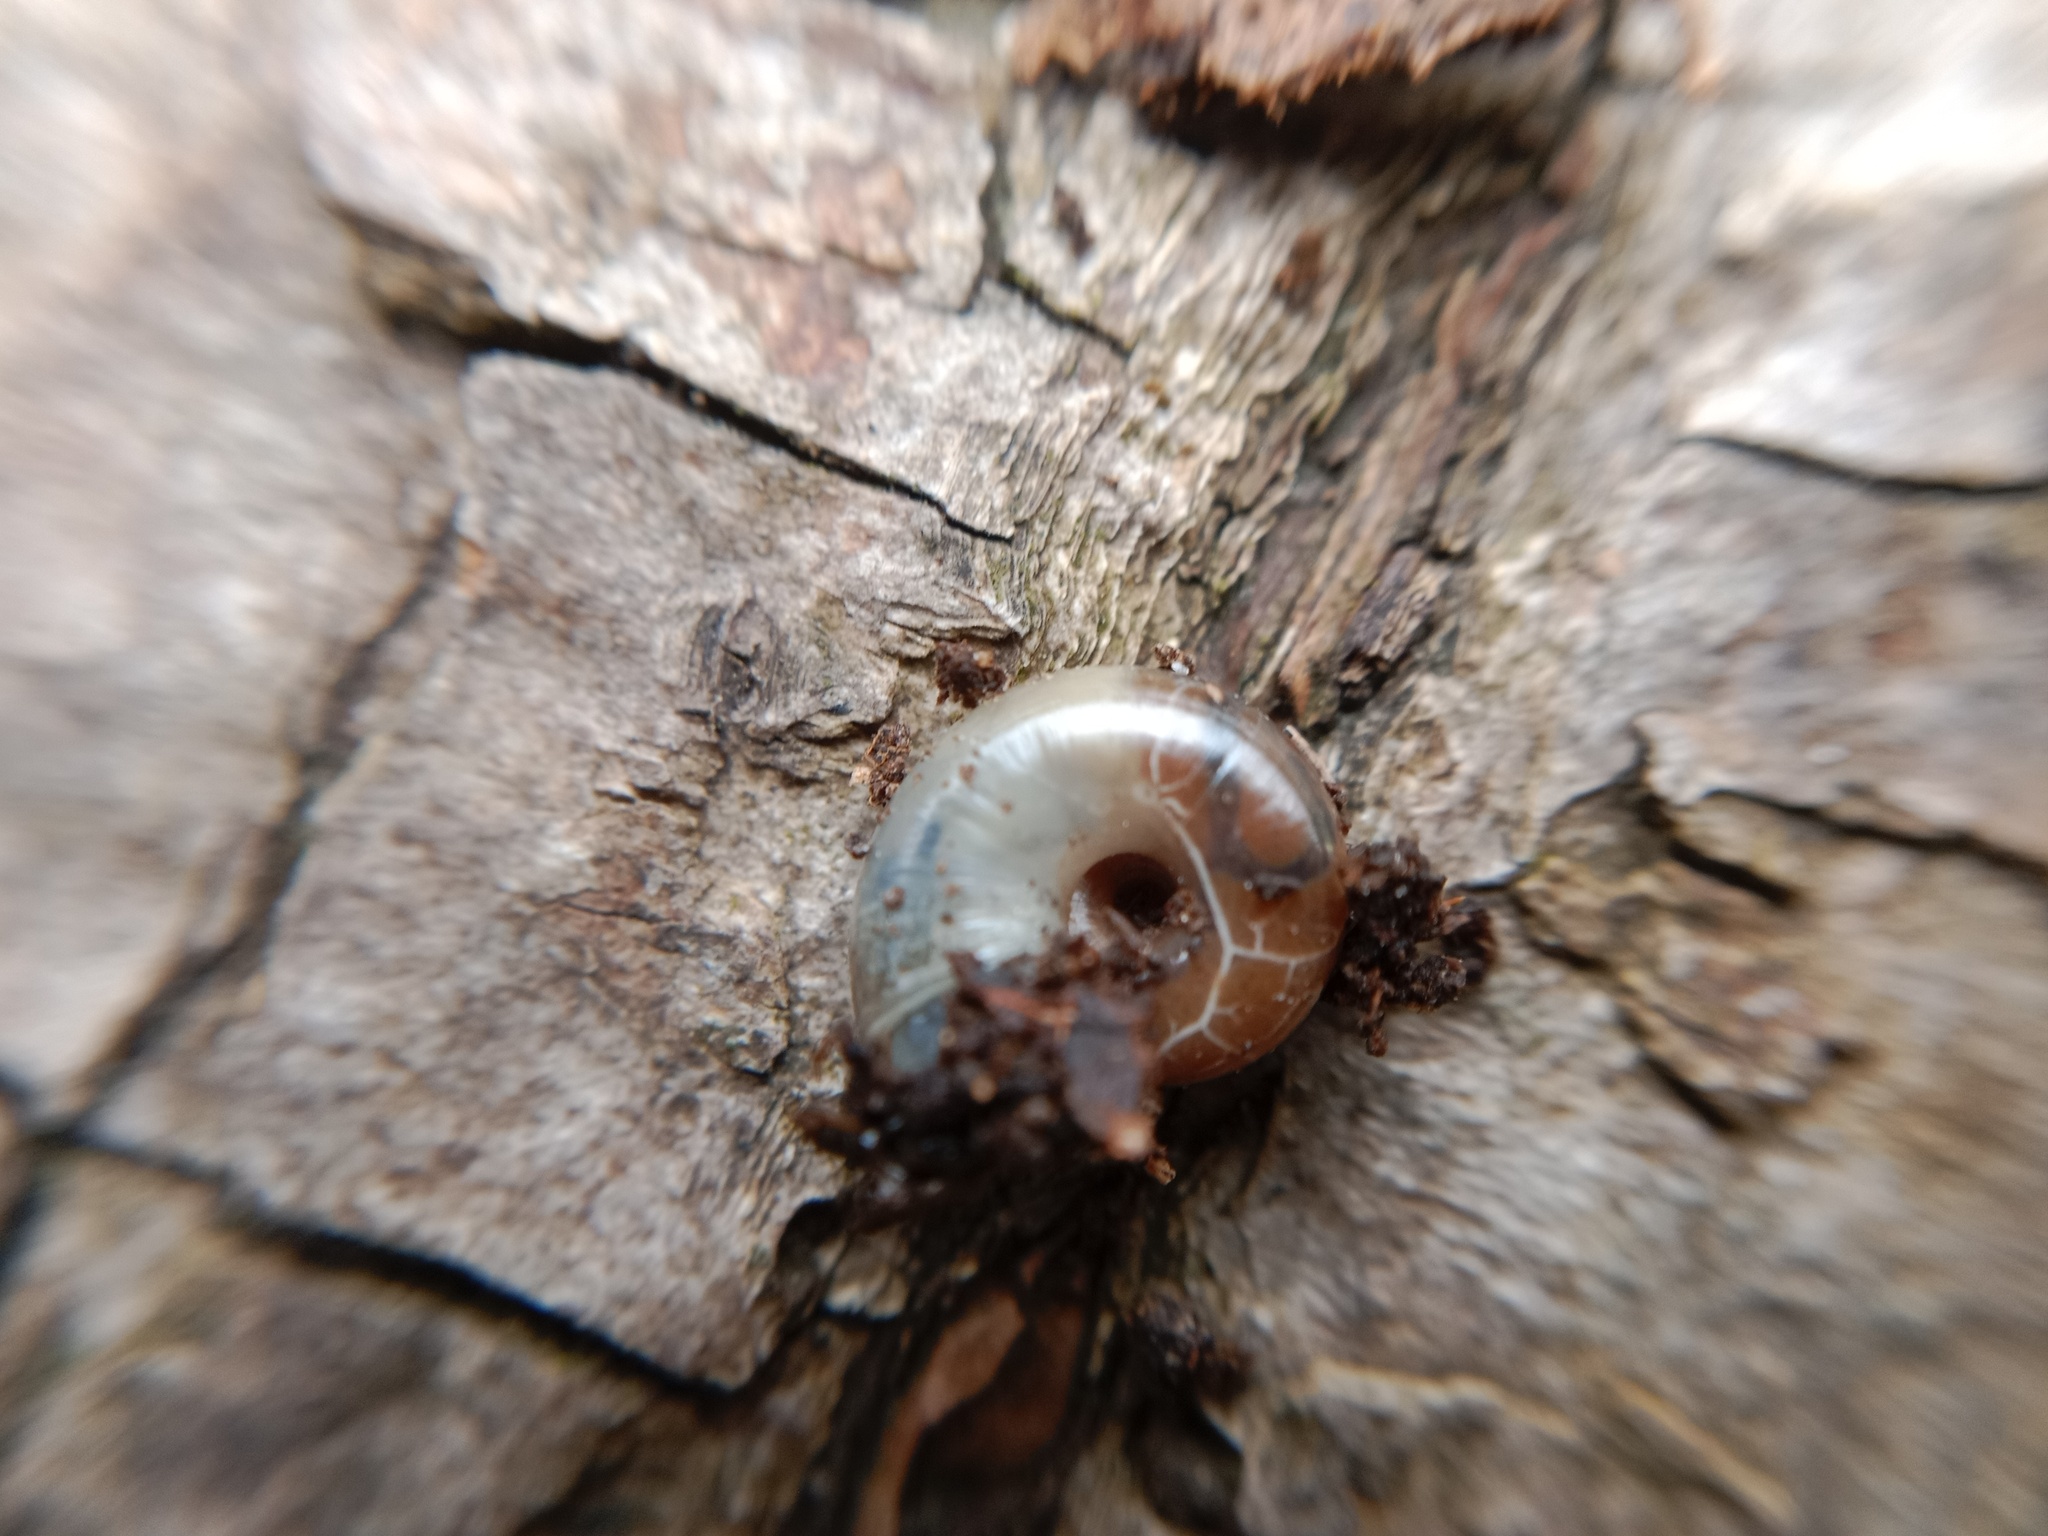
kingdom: Animalia
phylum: Mollusca
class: Gastropoda
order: Stylommatophora
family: Gastrodontidae
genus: Aegopinella
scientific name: Aegopinella minor
